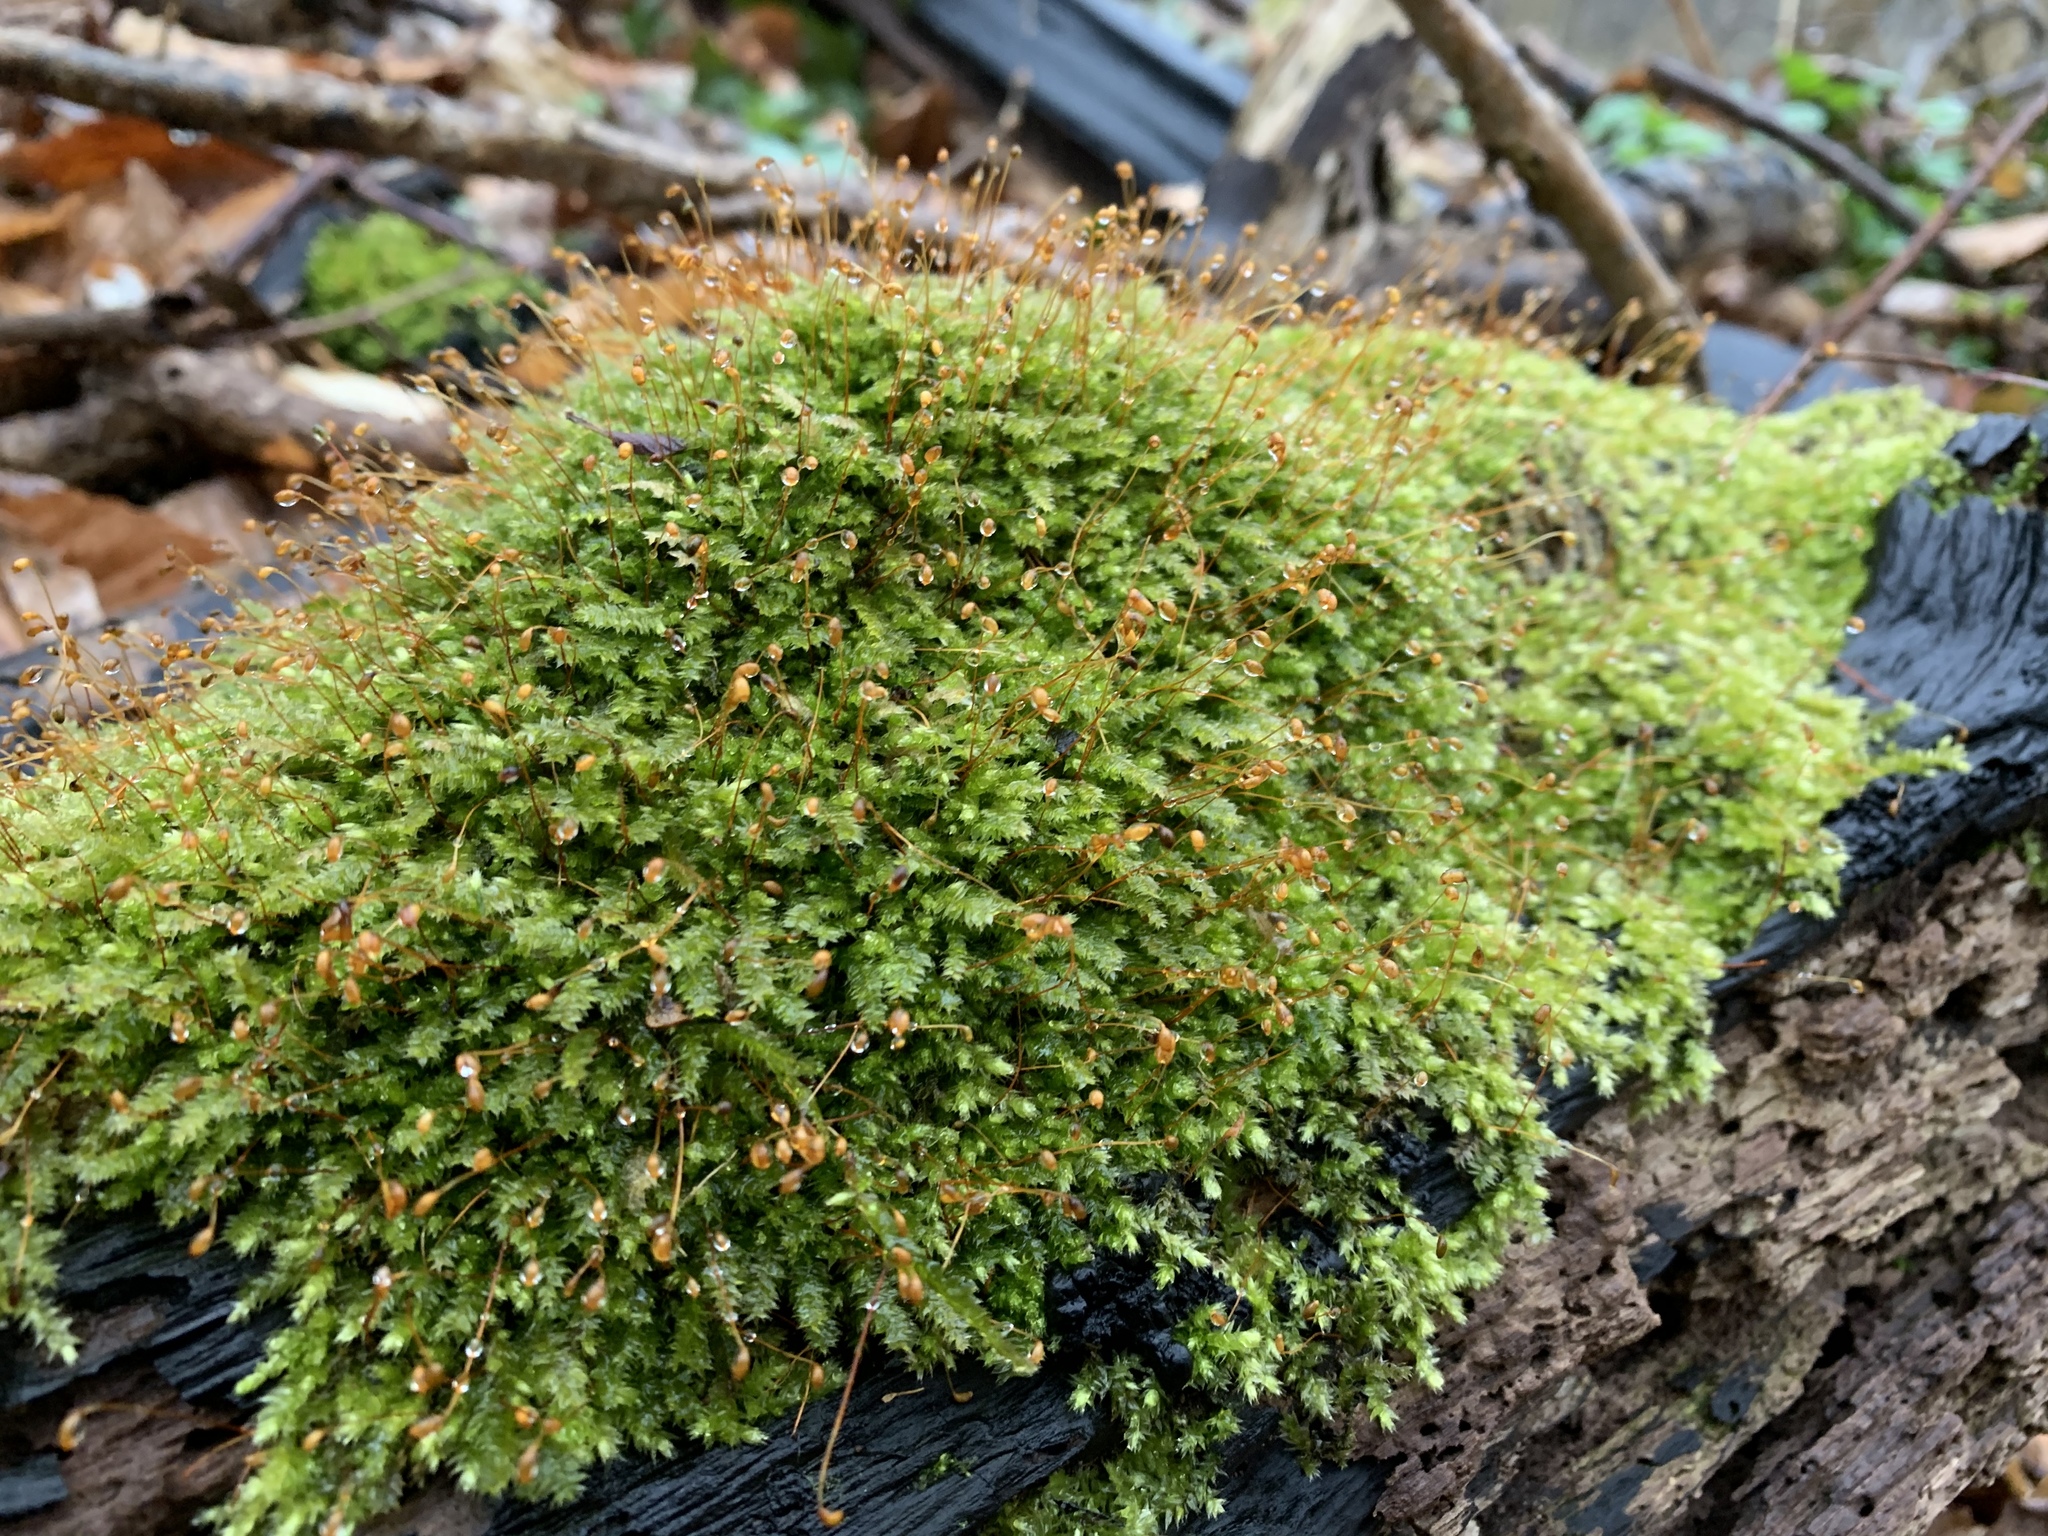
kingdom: Plantae
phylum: Bryophyta
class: Bryopsida
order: Hypnales
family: Brachytheciaceae
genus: Rhynchostegium
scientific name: Rhynchostegium serrulatum
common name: Serrulate-leaved long-beaked moss
